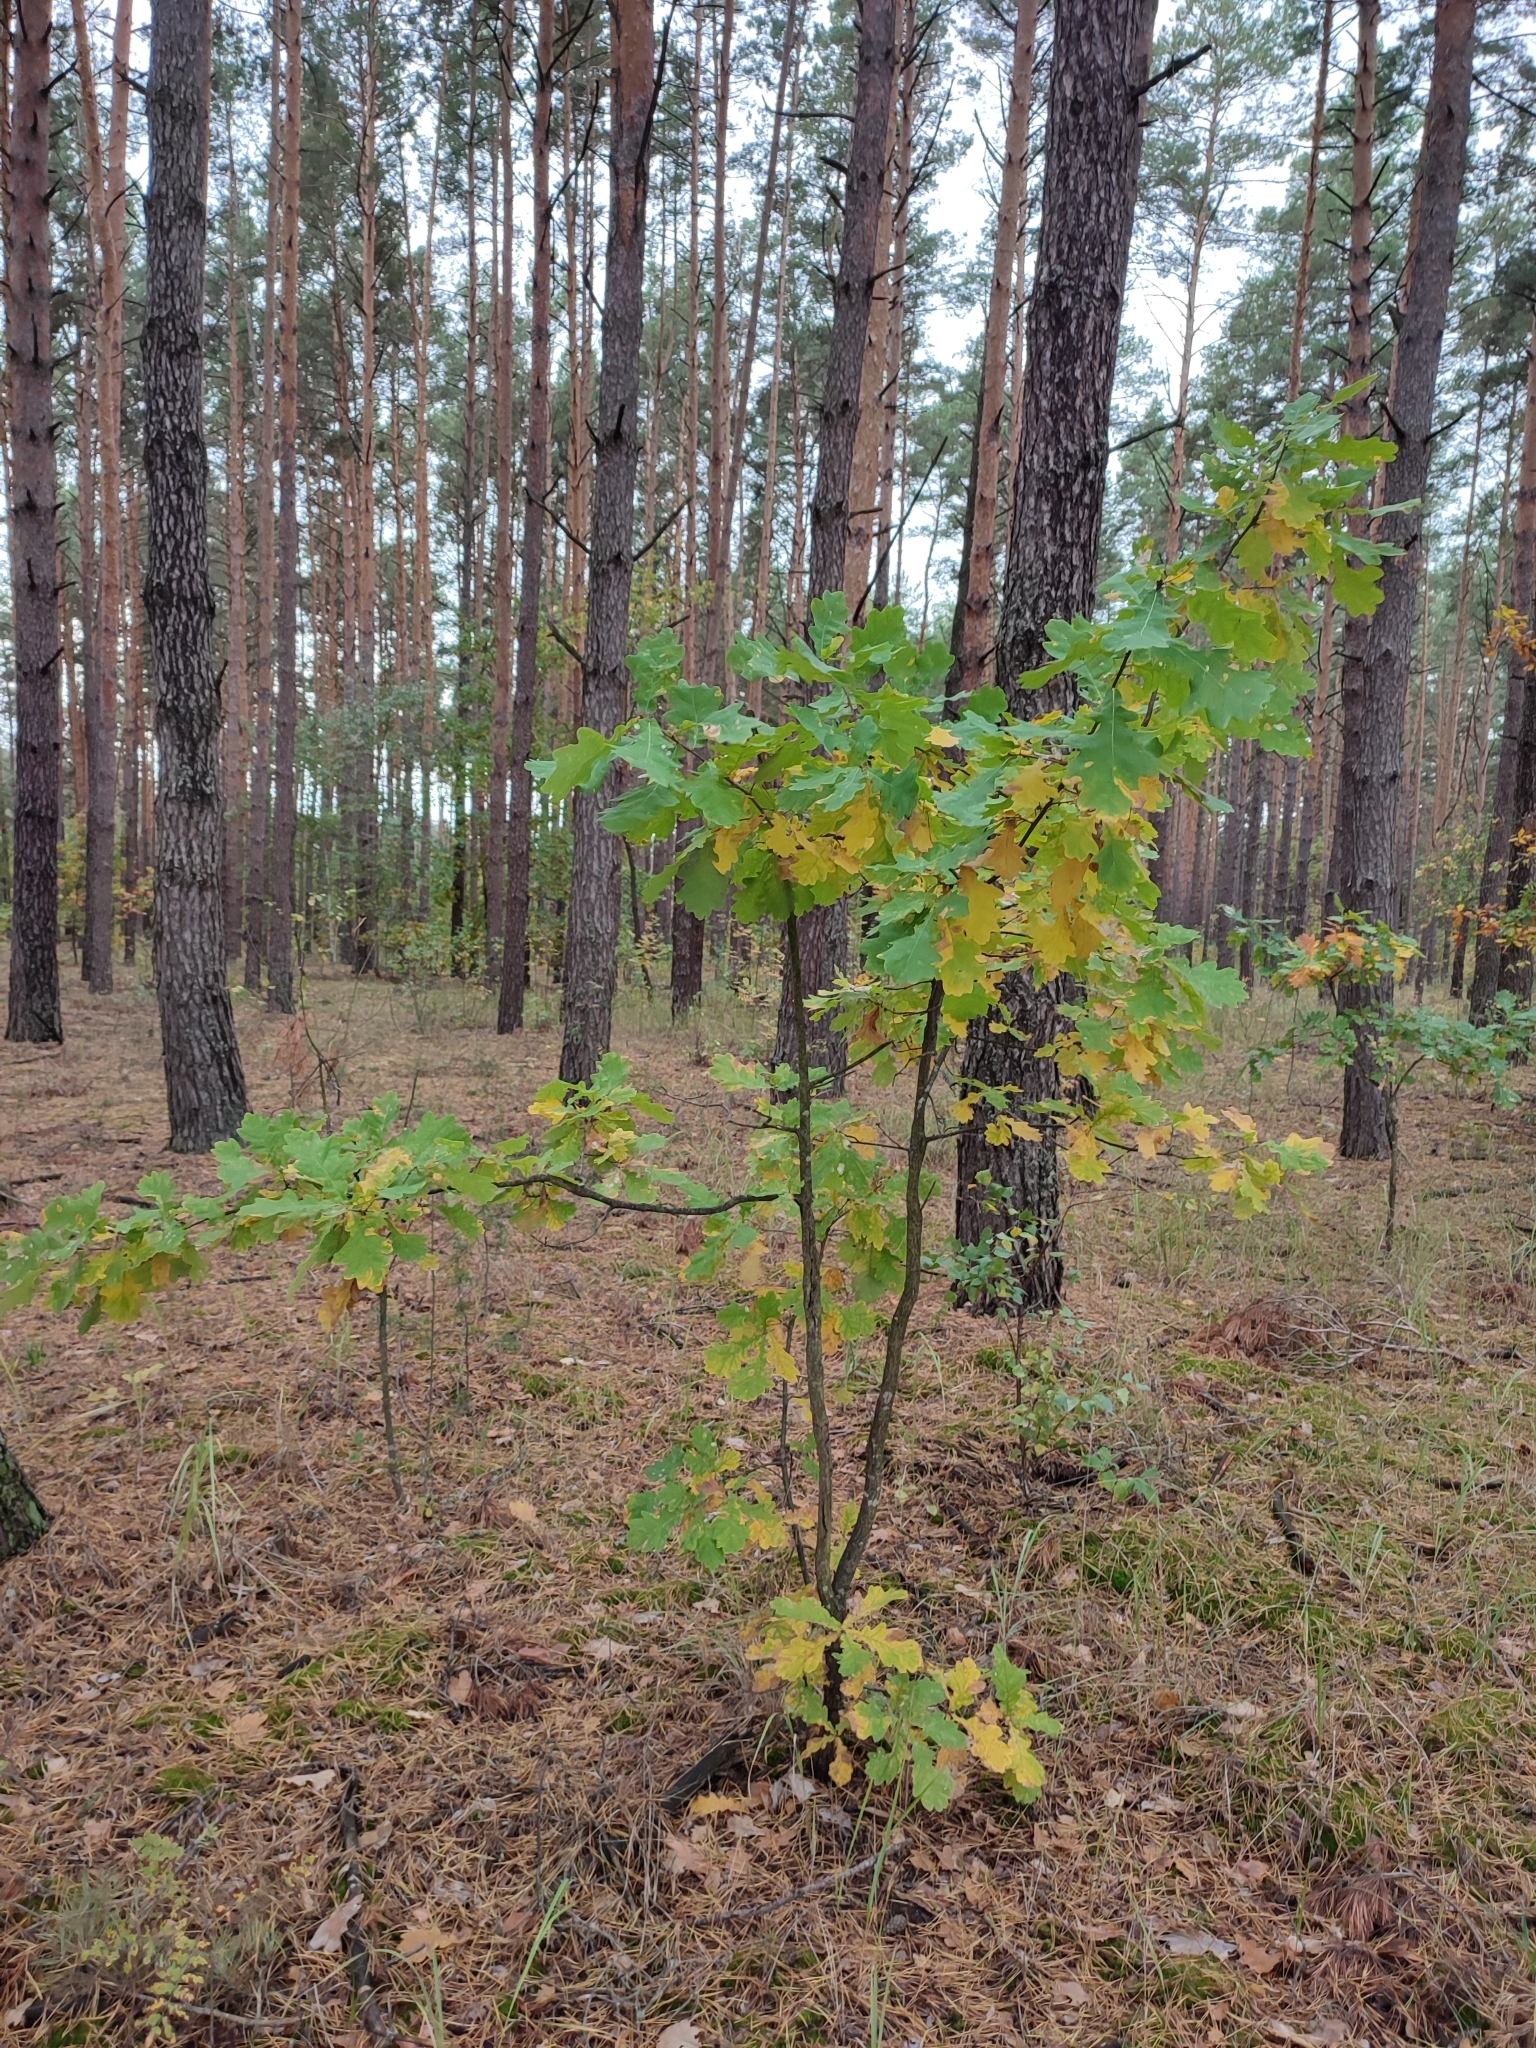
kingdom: Plantae
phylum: Tracheophyta
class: Magnoliopsida
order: Fagales
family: Fagaceae
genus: Quercus
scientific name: Quercus robur
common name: Pedunculate oak
